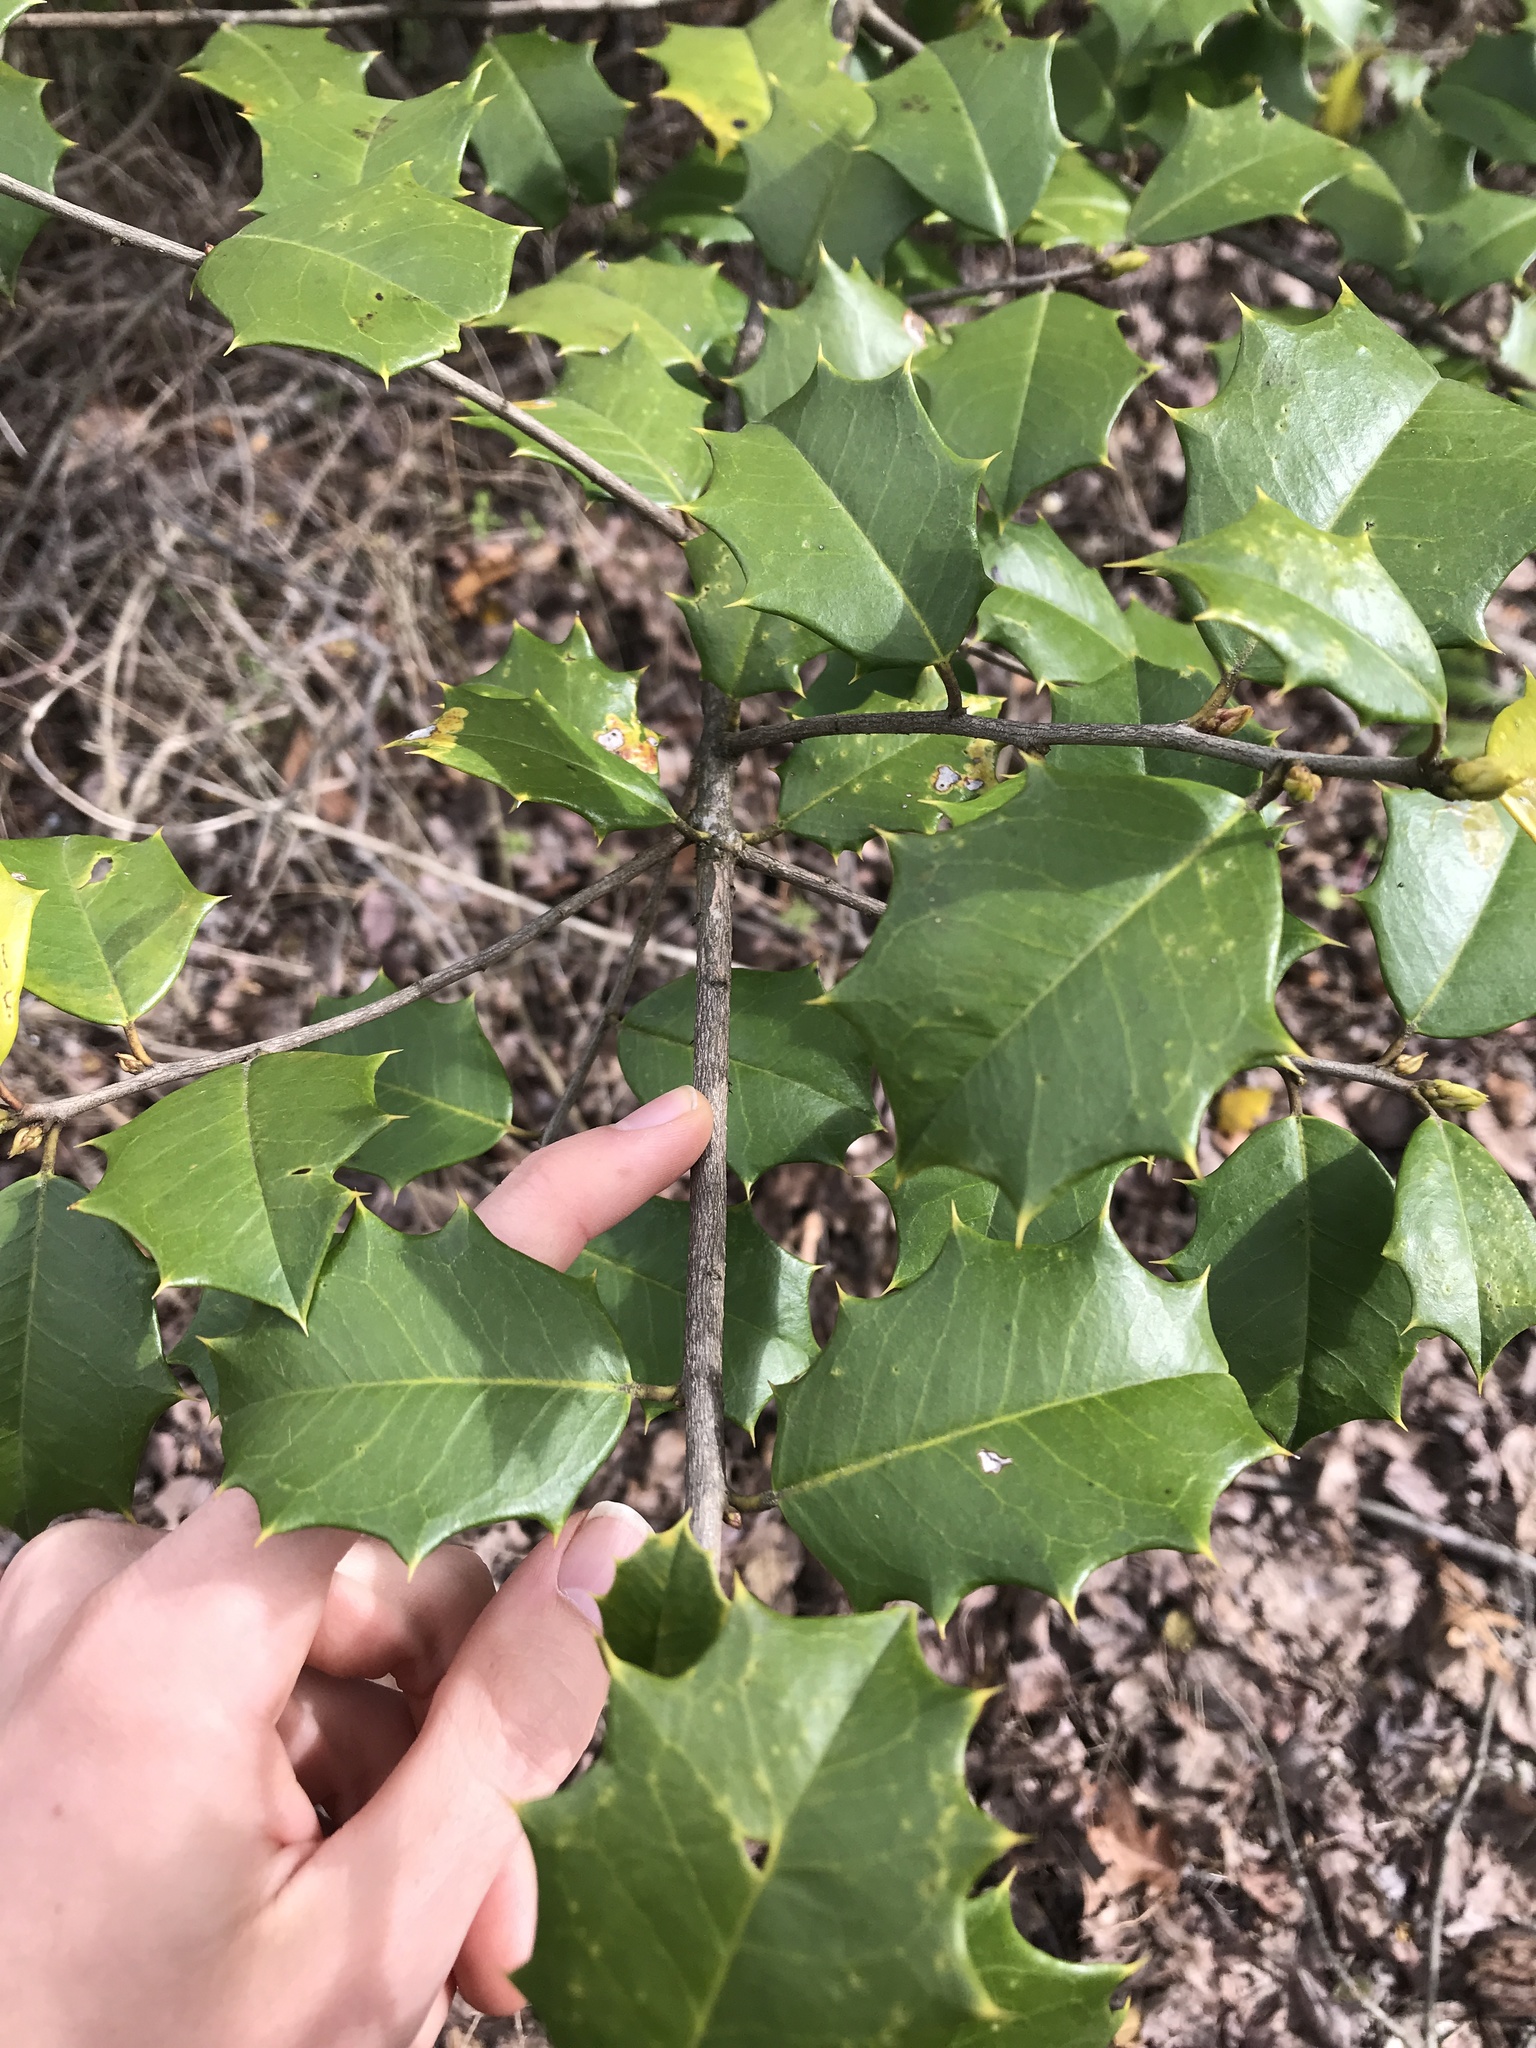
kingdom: Plantae
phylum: Tracheophyta
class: Magnoliopsida
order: Aquifoliales
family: Aquifoliaceae
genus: Ilex
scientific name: Ilex opaca
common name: American holly
